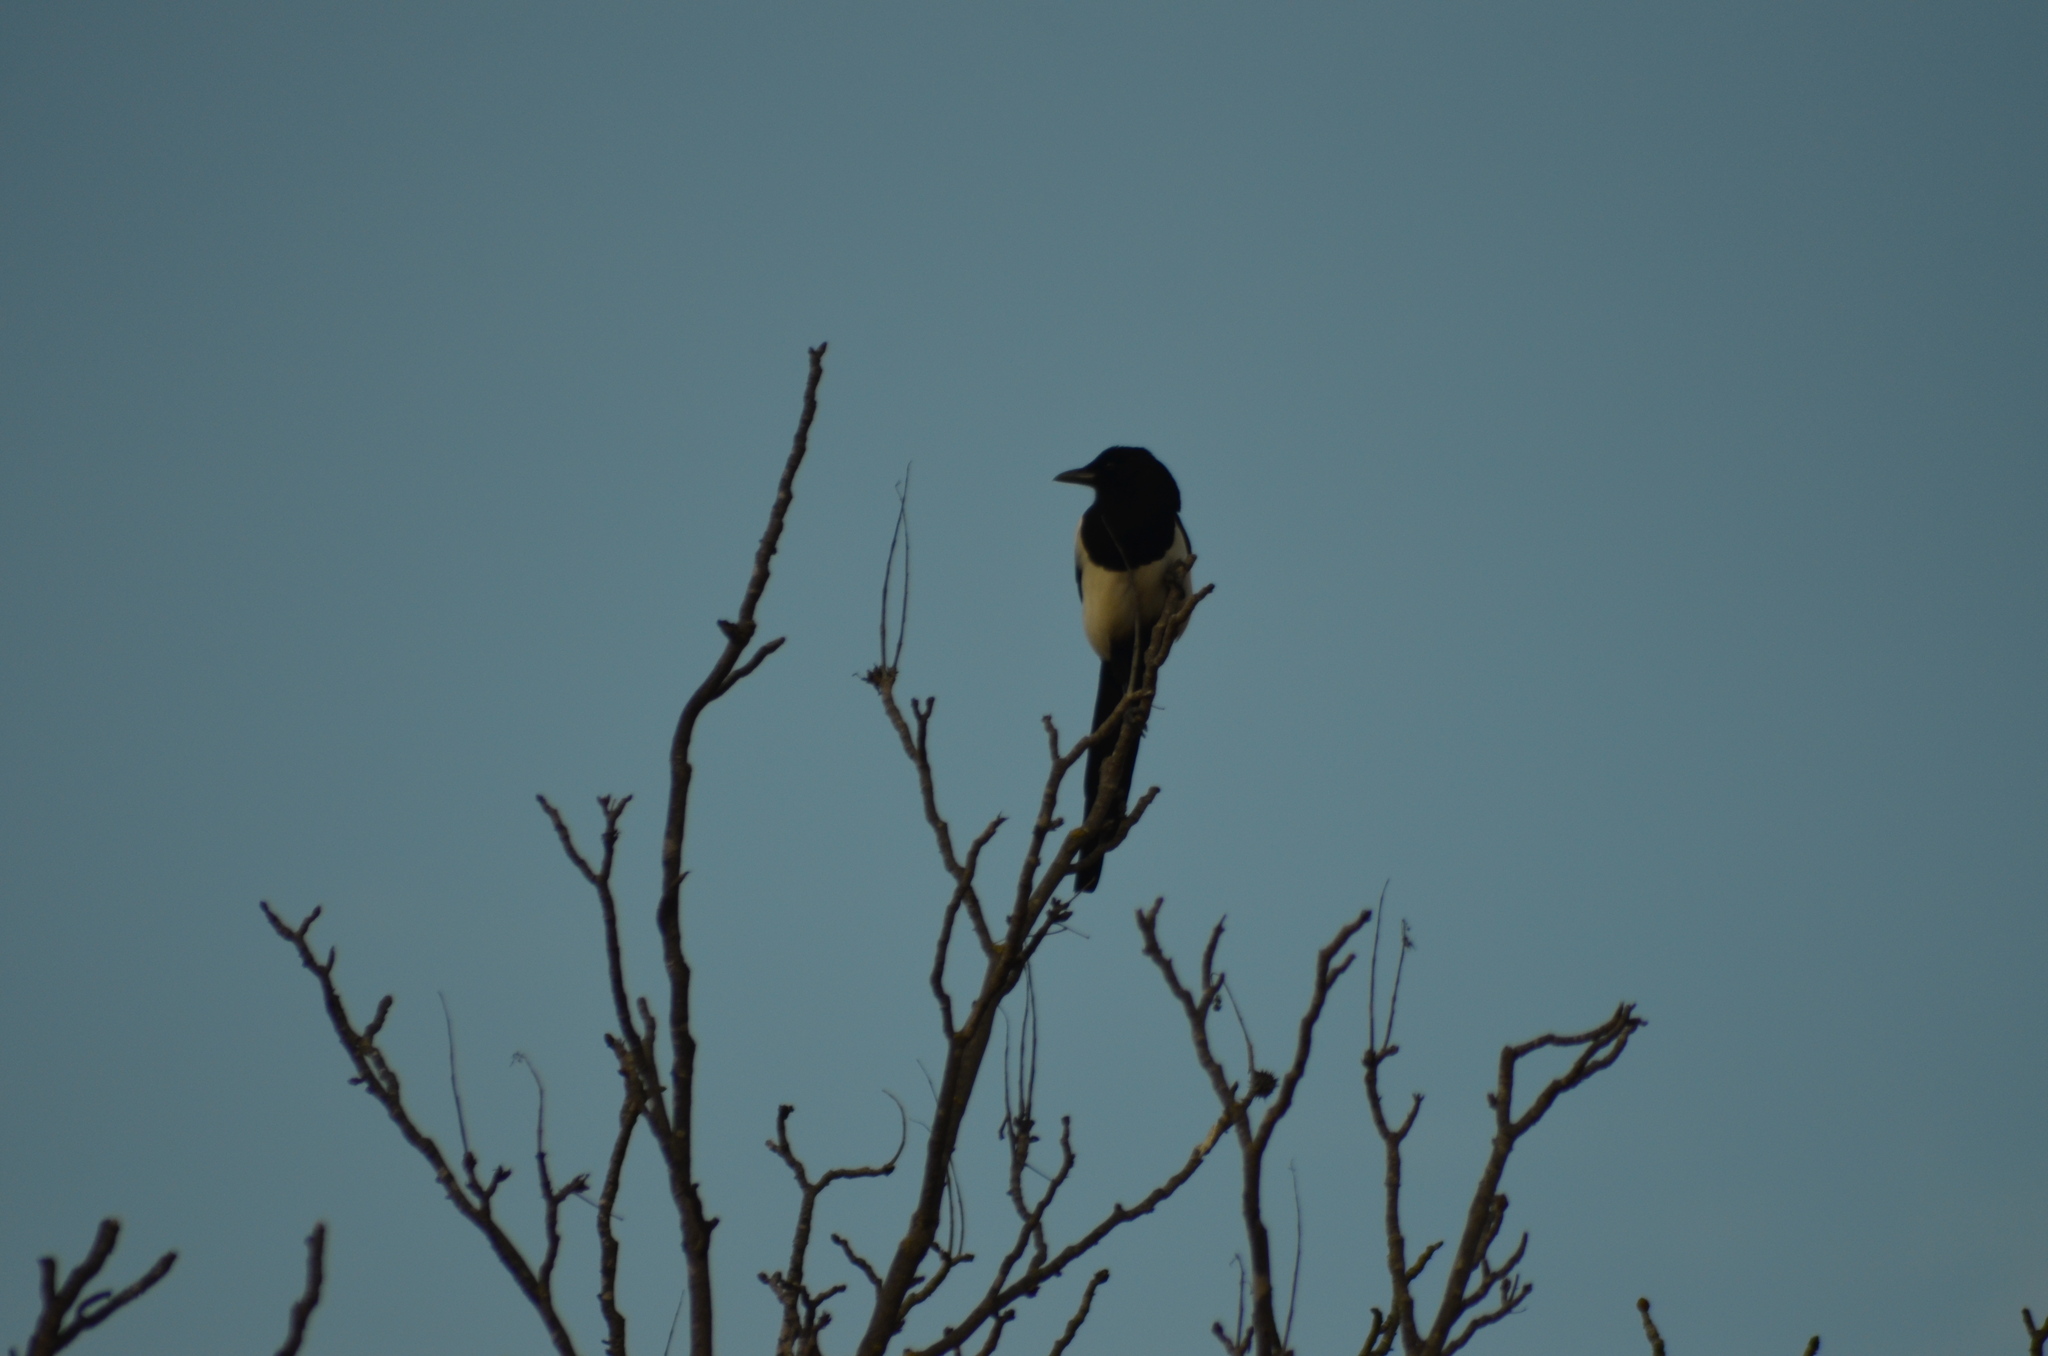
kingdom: Animalia
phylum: Chordata
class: Aves
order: Passeriformes
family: Corvidae
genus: Pica
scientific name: Pica pica
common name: Eurasian magpie
